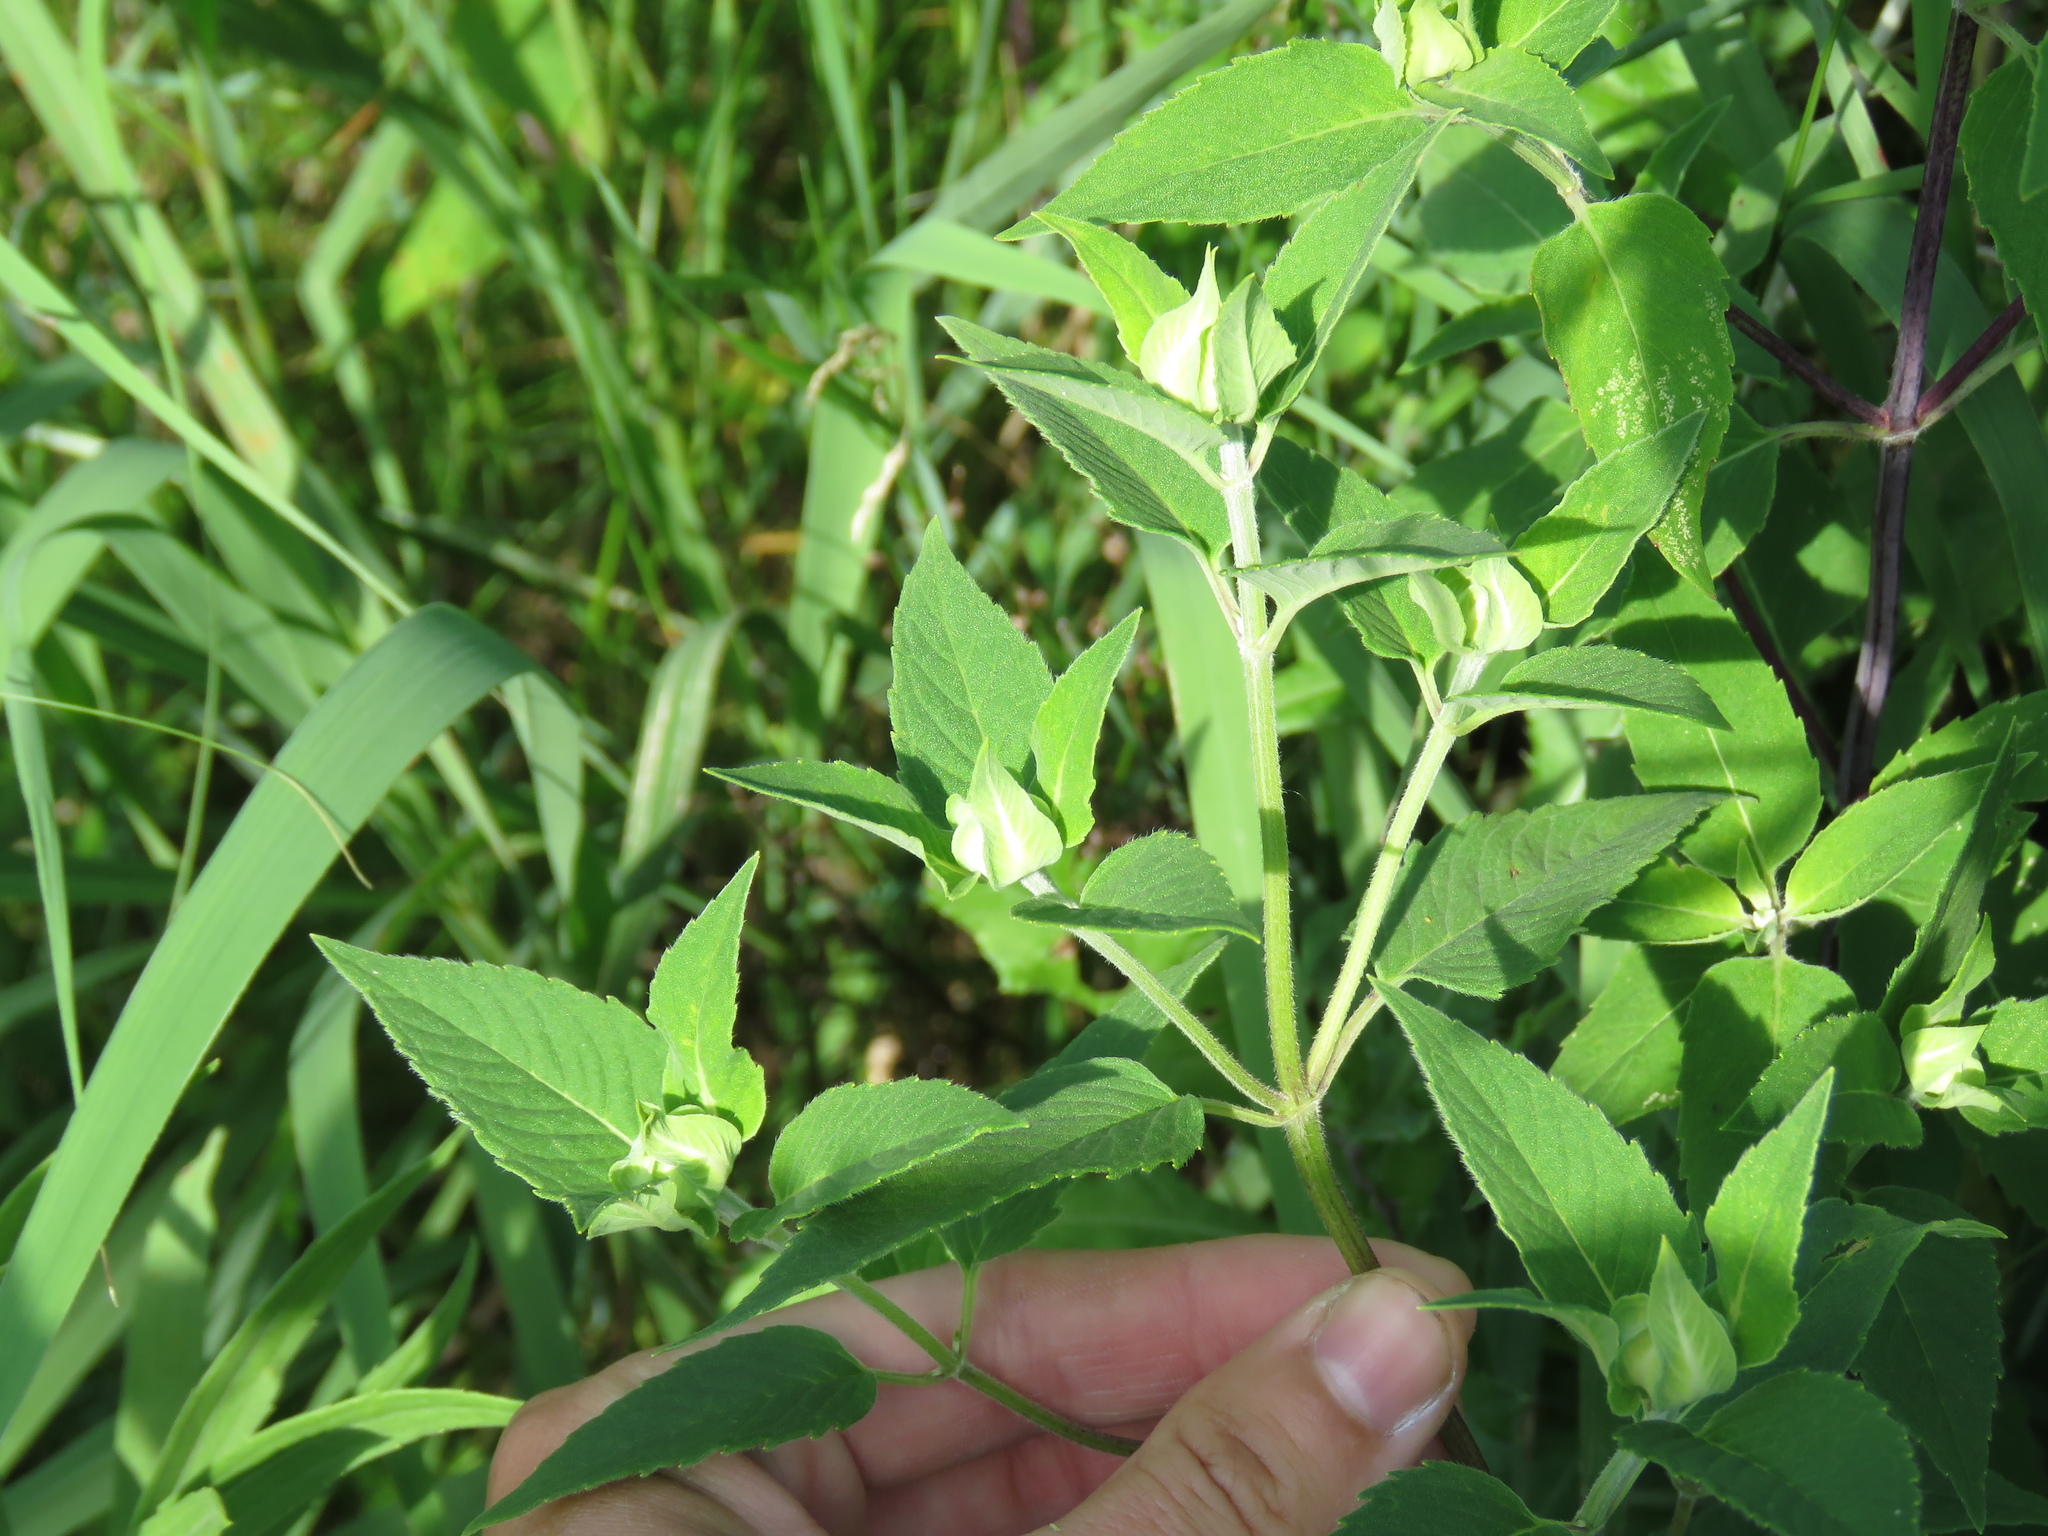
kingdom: Plantae
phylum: Tracheophyta
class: Magnoliopsida
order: Lamiales
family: Lamiaceae
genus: Monarda
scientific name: Monarda fistulosa
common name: Purple beebalm
